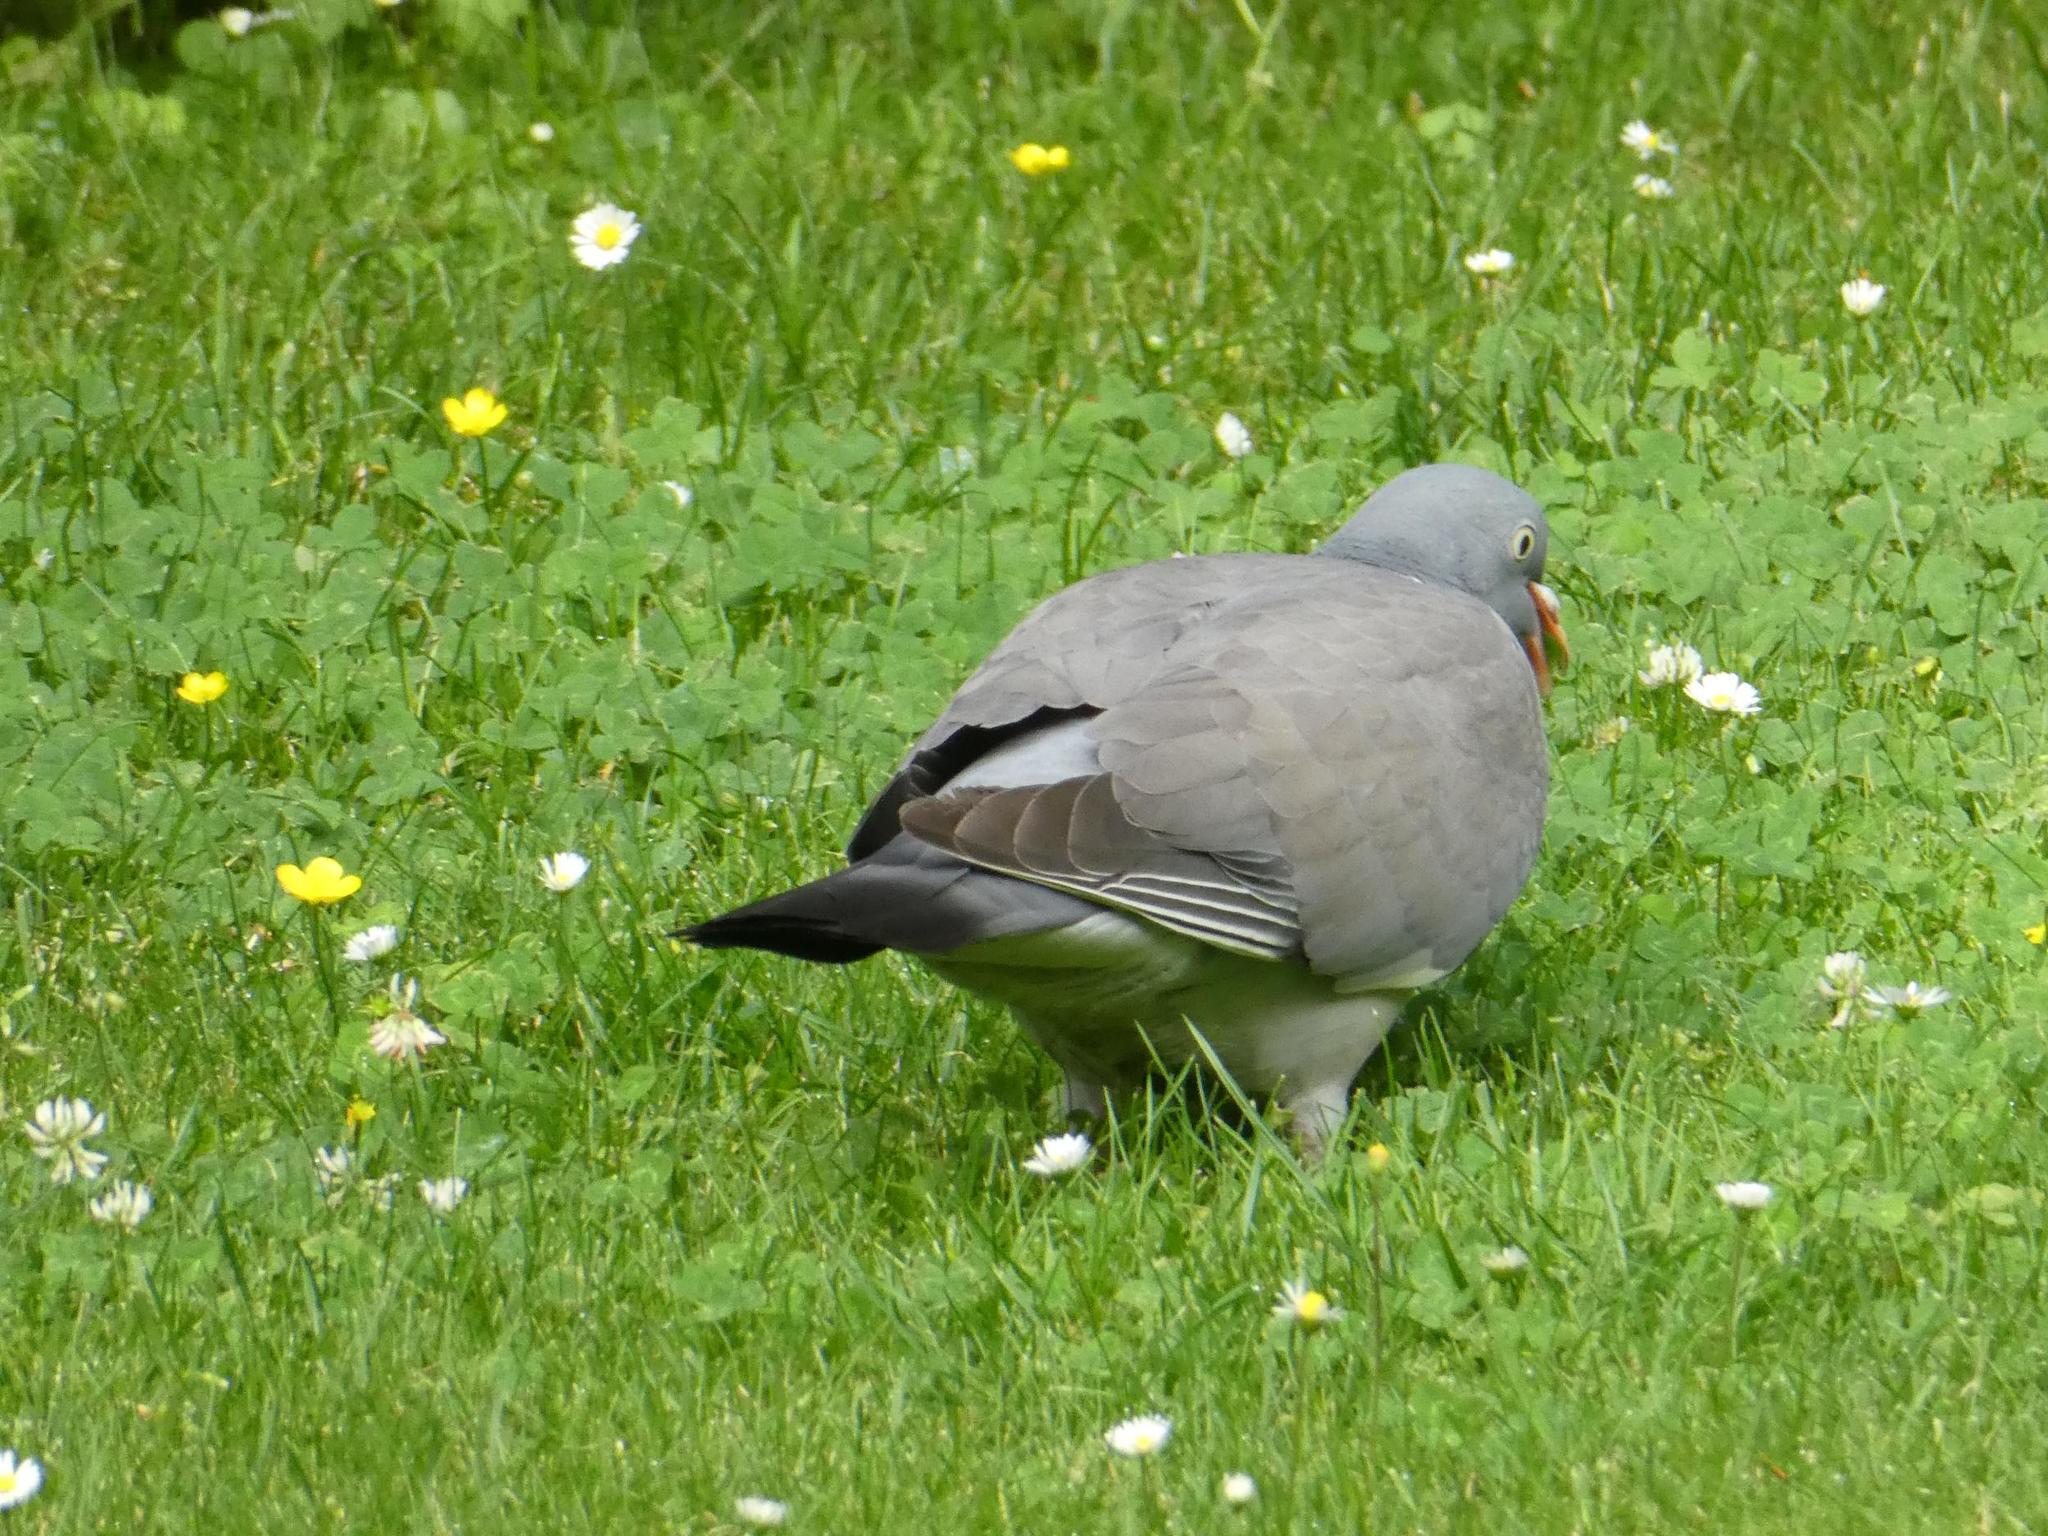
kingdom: Animalia
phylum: Chordata
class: Aves
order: Columbiformes
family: Columbidae
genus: Columba
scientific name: Columba palumbus
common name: Common wood pigeon
